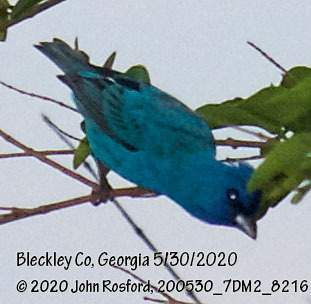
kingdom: Animalia
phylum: Chordata
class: Aves
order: Passeriformes
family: Cardinalidae
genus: Passerina
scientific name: Passerina cyanea
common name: Indigo bunting
